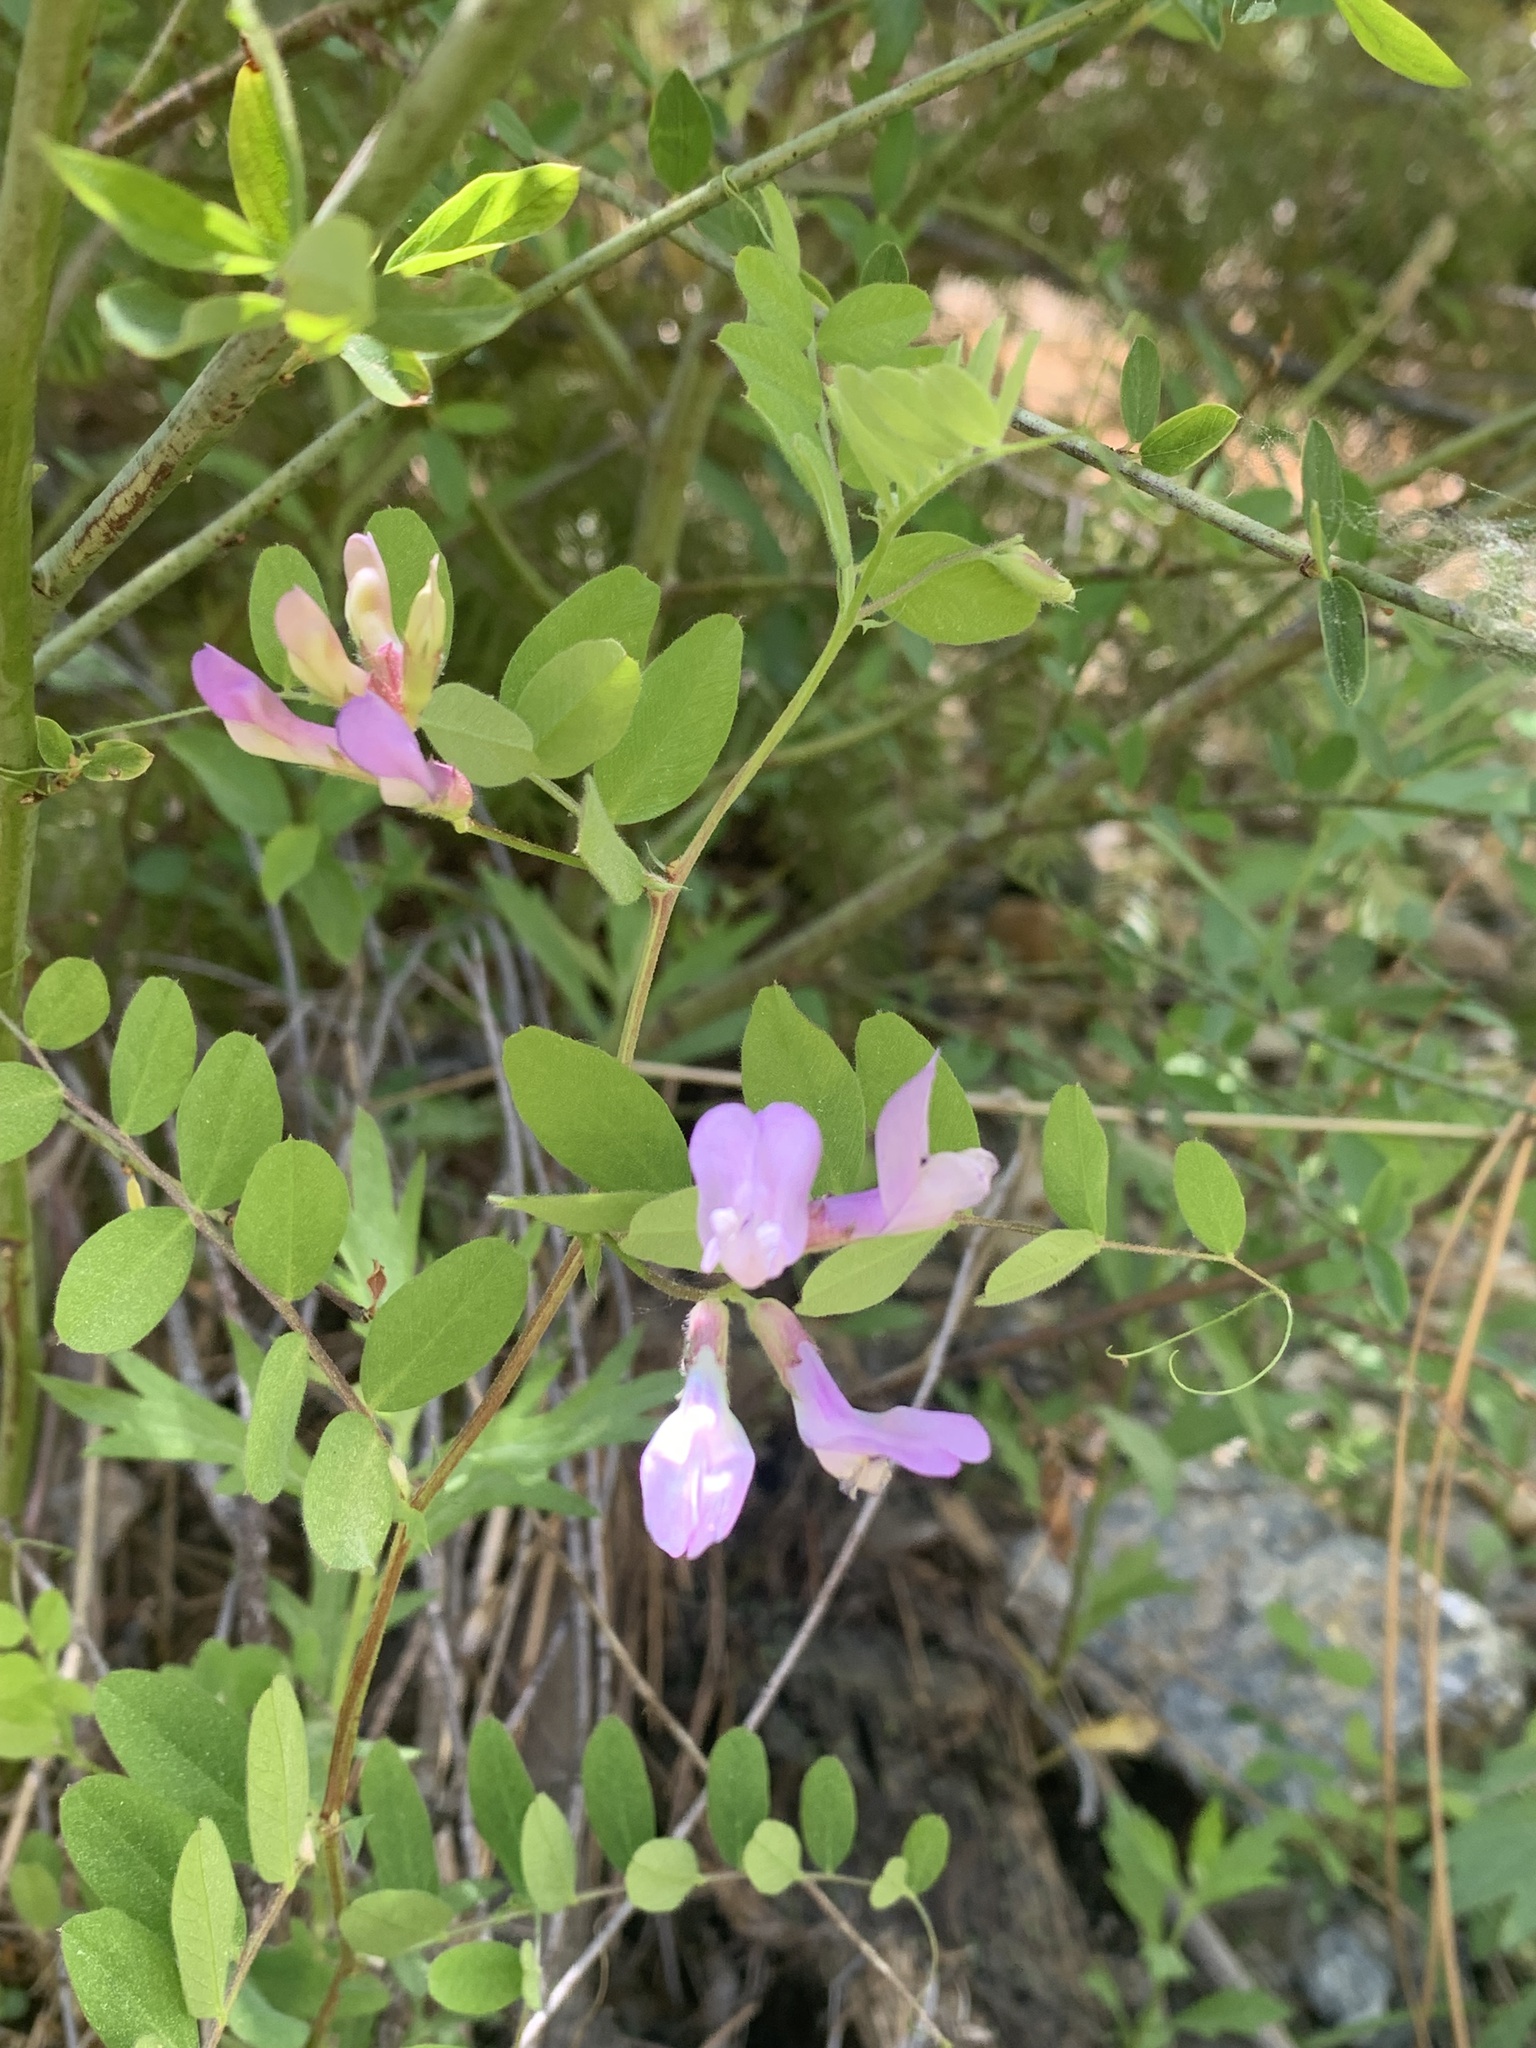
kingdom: Plantae
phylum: Tracheophyta
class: Magnoliopsida
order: Fabales
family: Fabaceae
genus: Vicia
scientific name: Vicia americana
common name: American vetch
